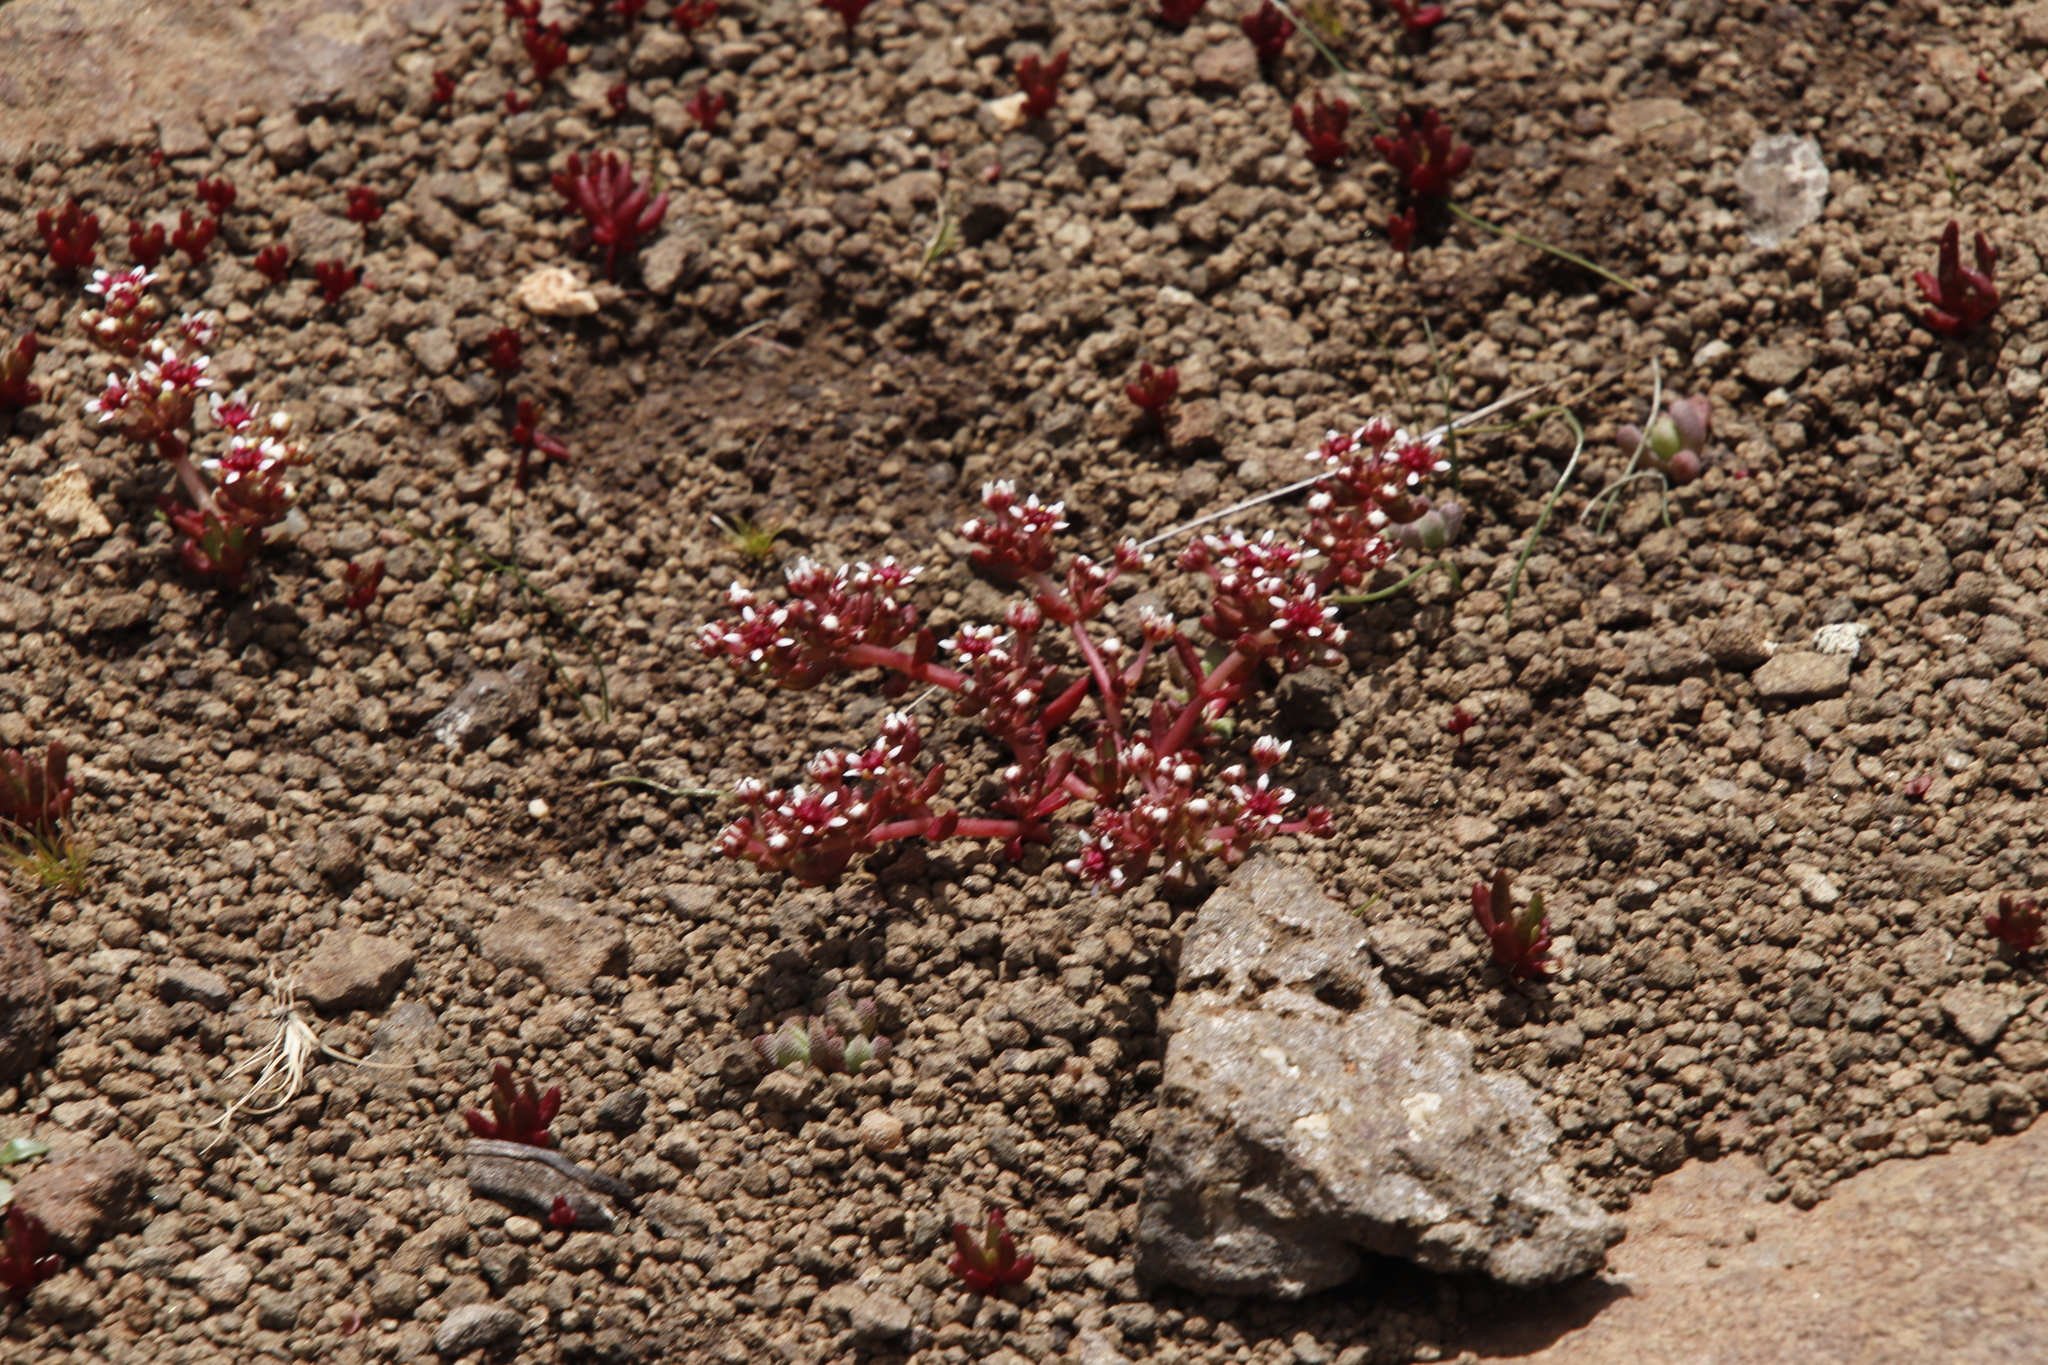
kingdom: Plantae
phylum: Tracheophyta
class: Magnoliopsida
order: Saxifragales
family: Crassulaceae
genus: Crassula
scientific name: Crassula peploides
